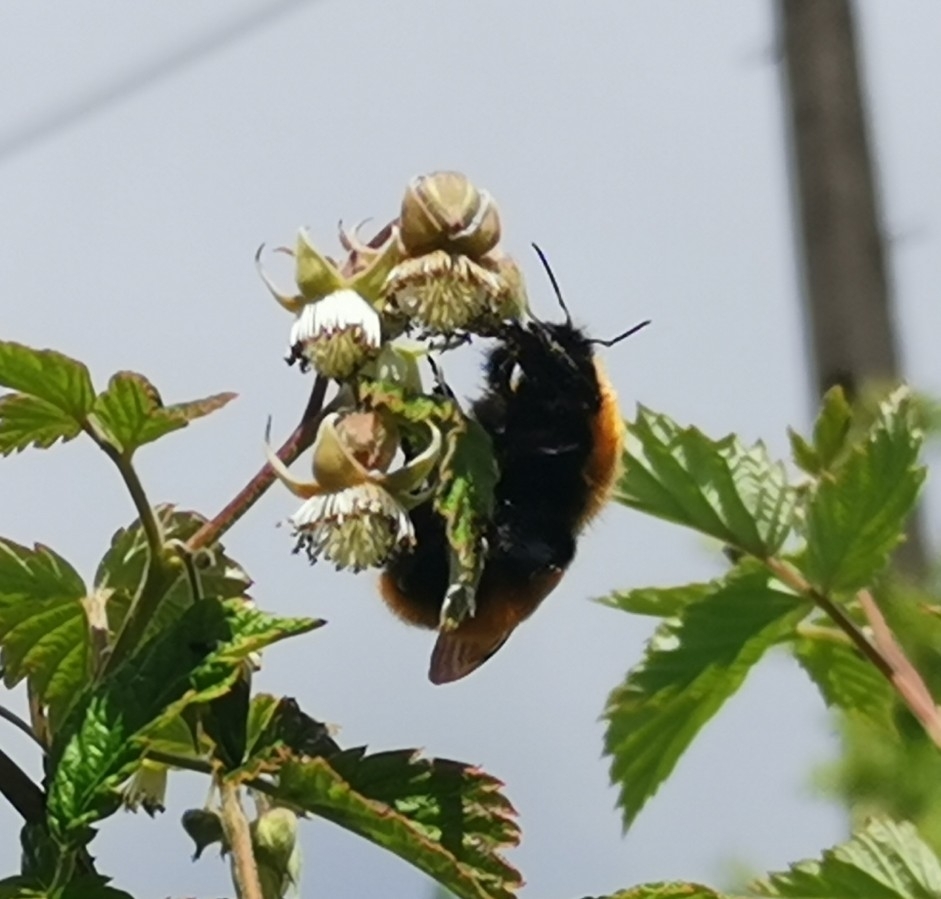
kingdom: Animalia
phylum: Arthropoda
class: Insecta
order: Hymenoptera
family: Apidae
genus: Bombus
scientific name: Bombus dahlbomii
